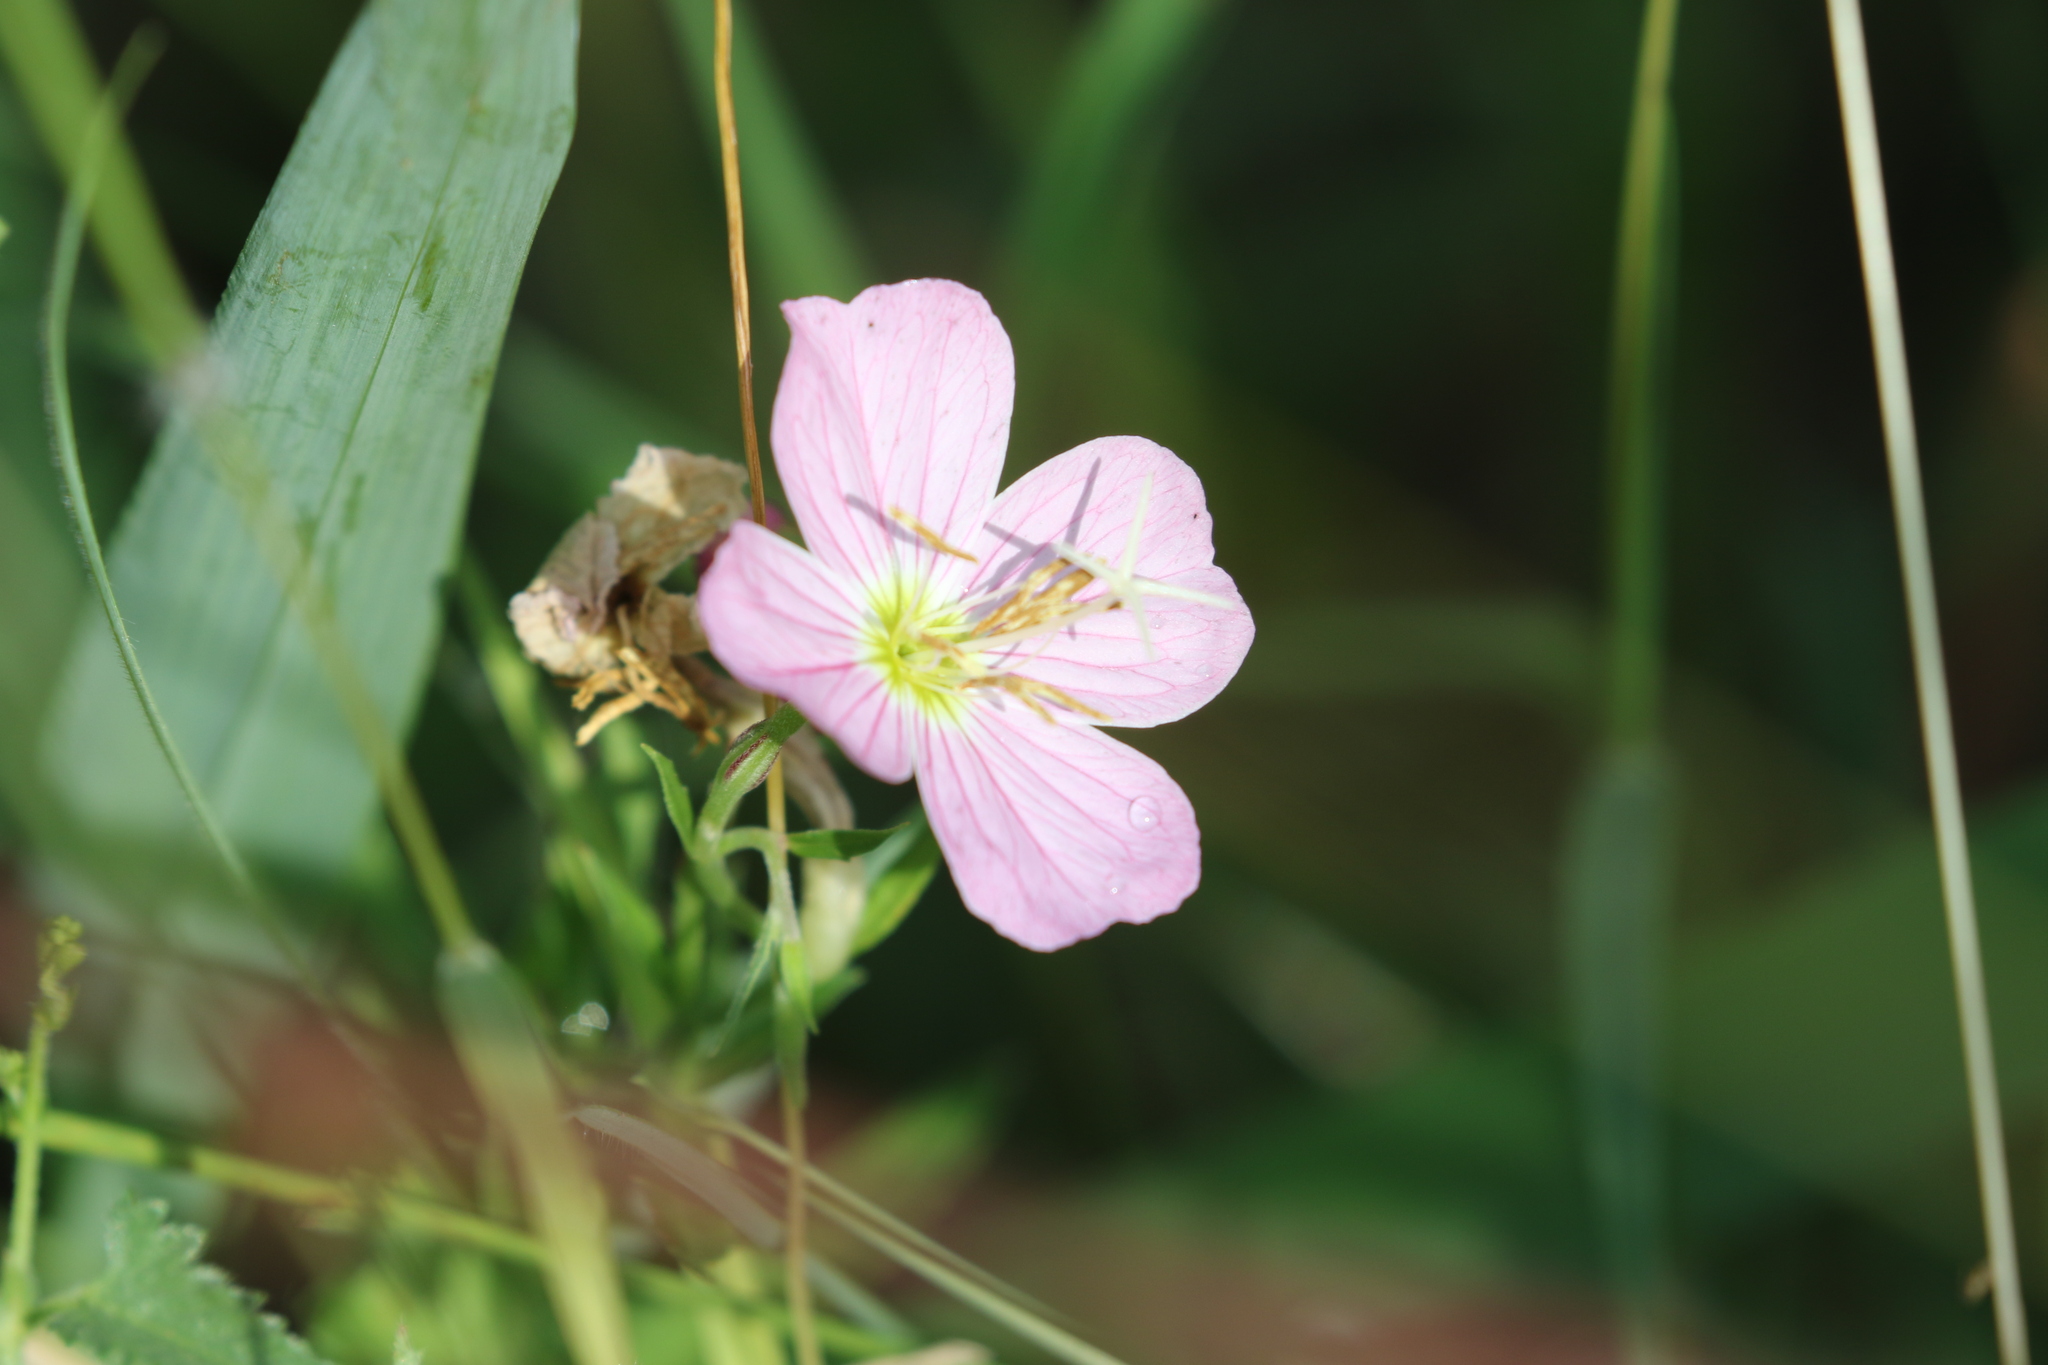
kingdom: Plantae
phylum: Tracheophyta
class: Magnoliopsida
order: Myrtales
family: Onagraceae
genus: Oenothera
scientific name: Oenothera speciosa
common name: White evening-primrose
